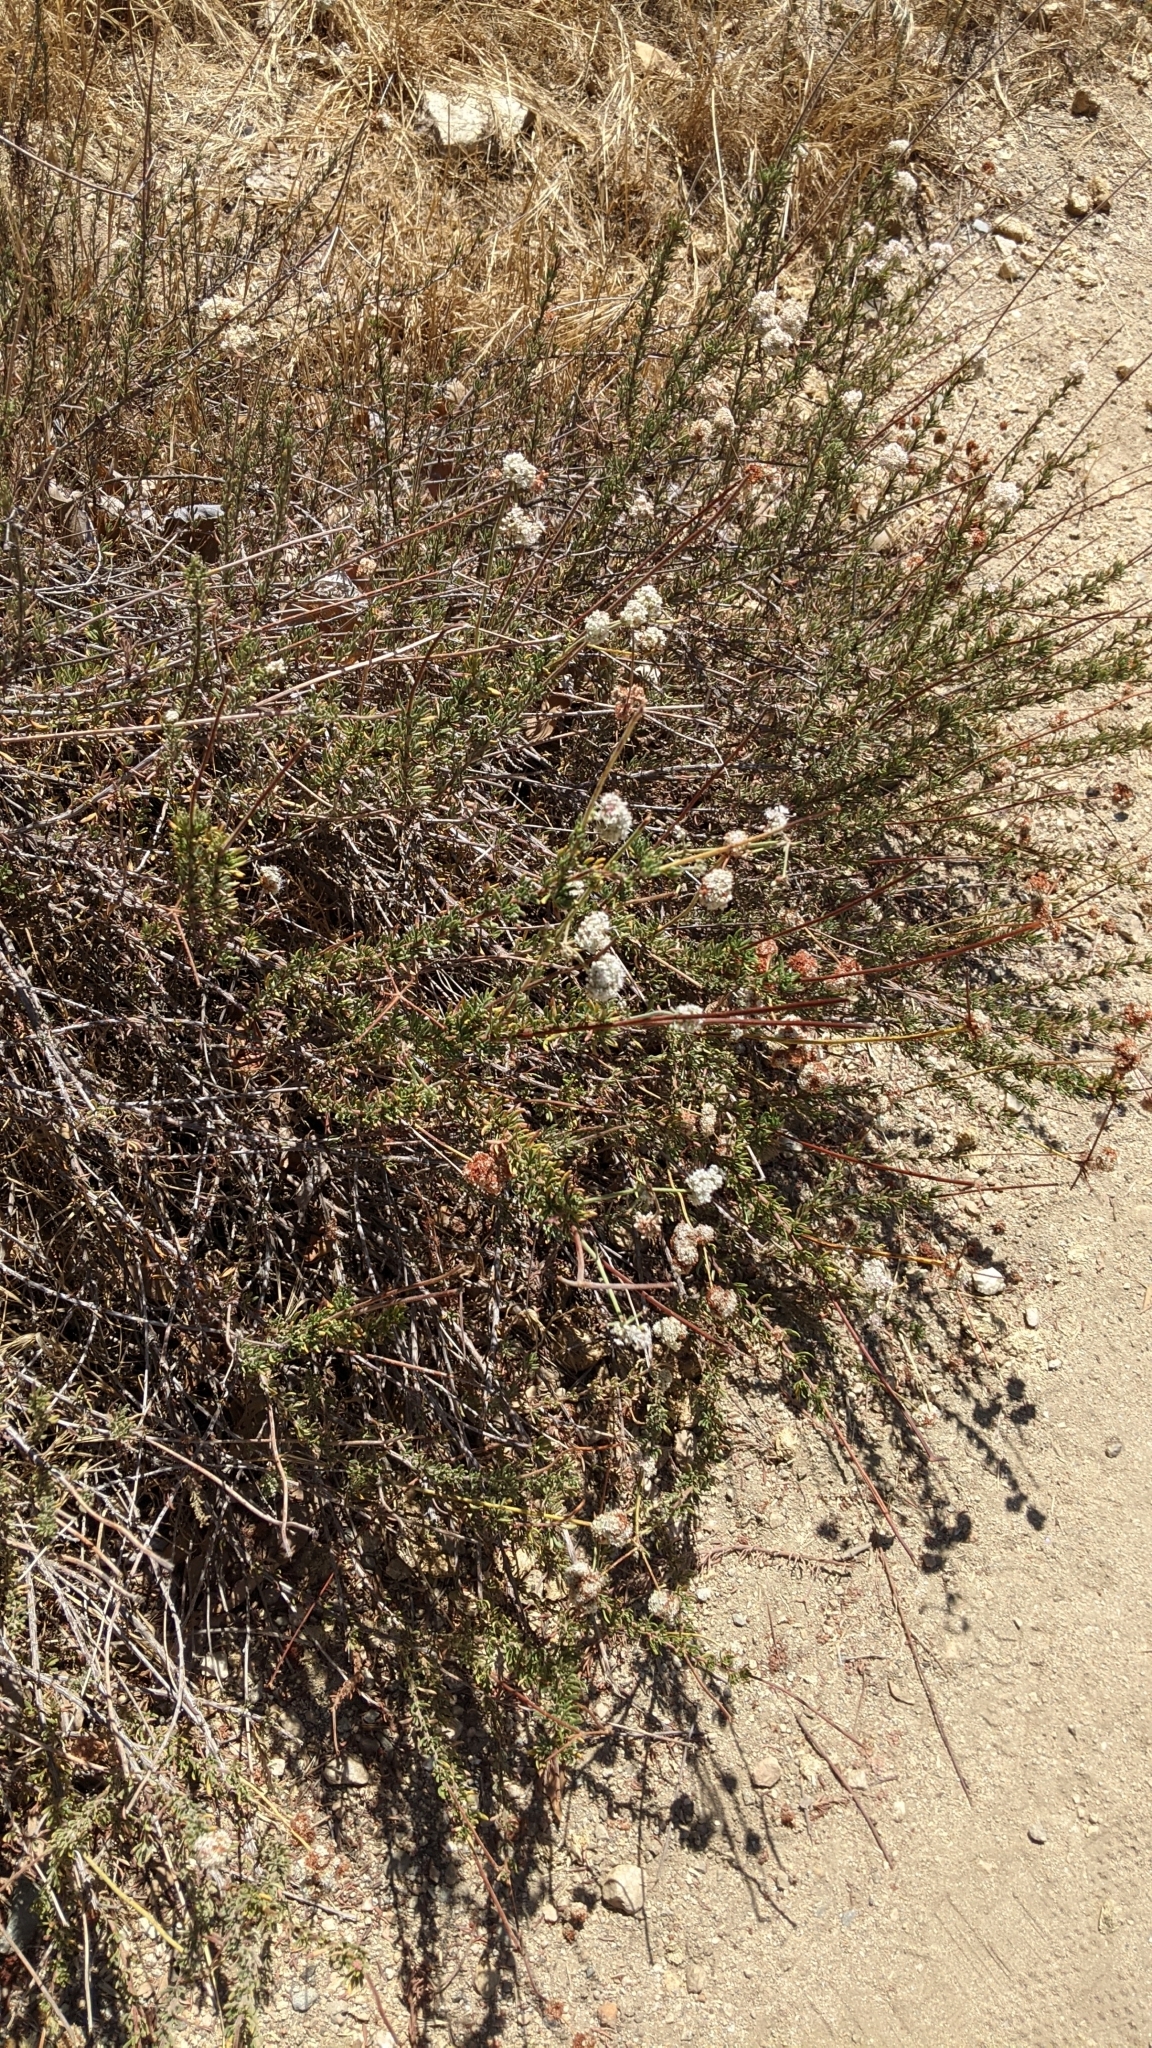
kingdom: Plantae
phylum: Tracheophyta
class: Magnoliopsida
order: Caryophyllales
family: Polygonaceae
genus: Eriogonum
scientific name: Eriogonum fasciculatum
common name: California wild buckwheat
